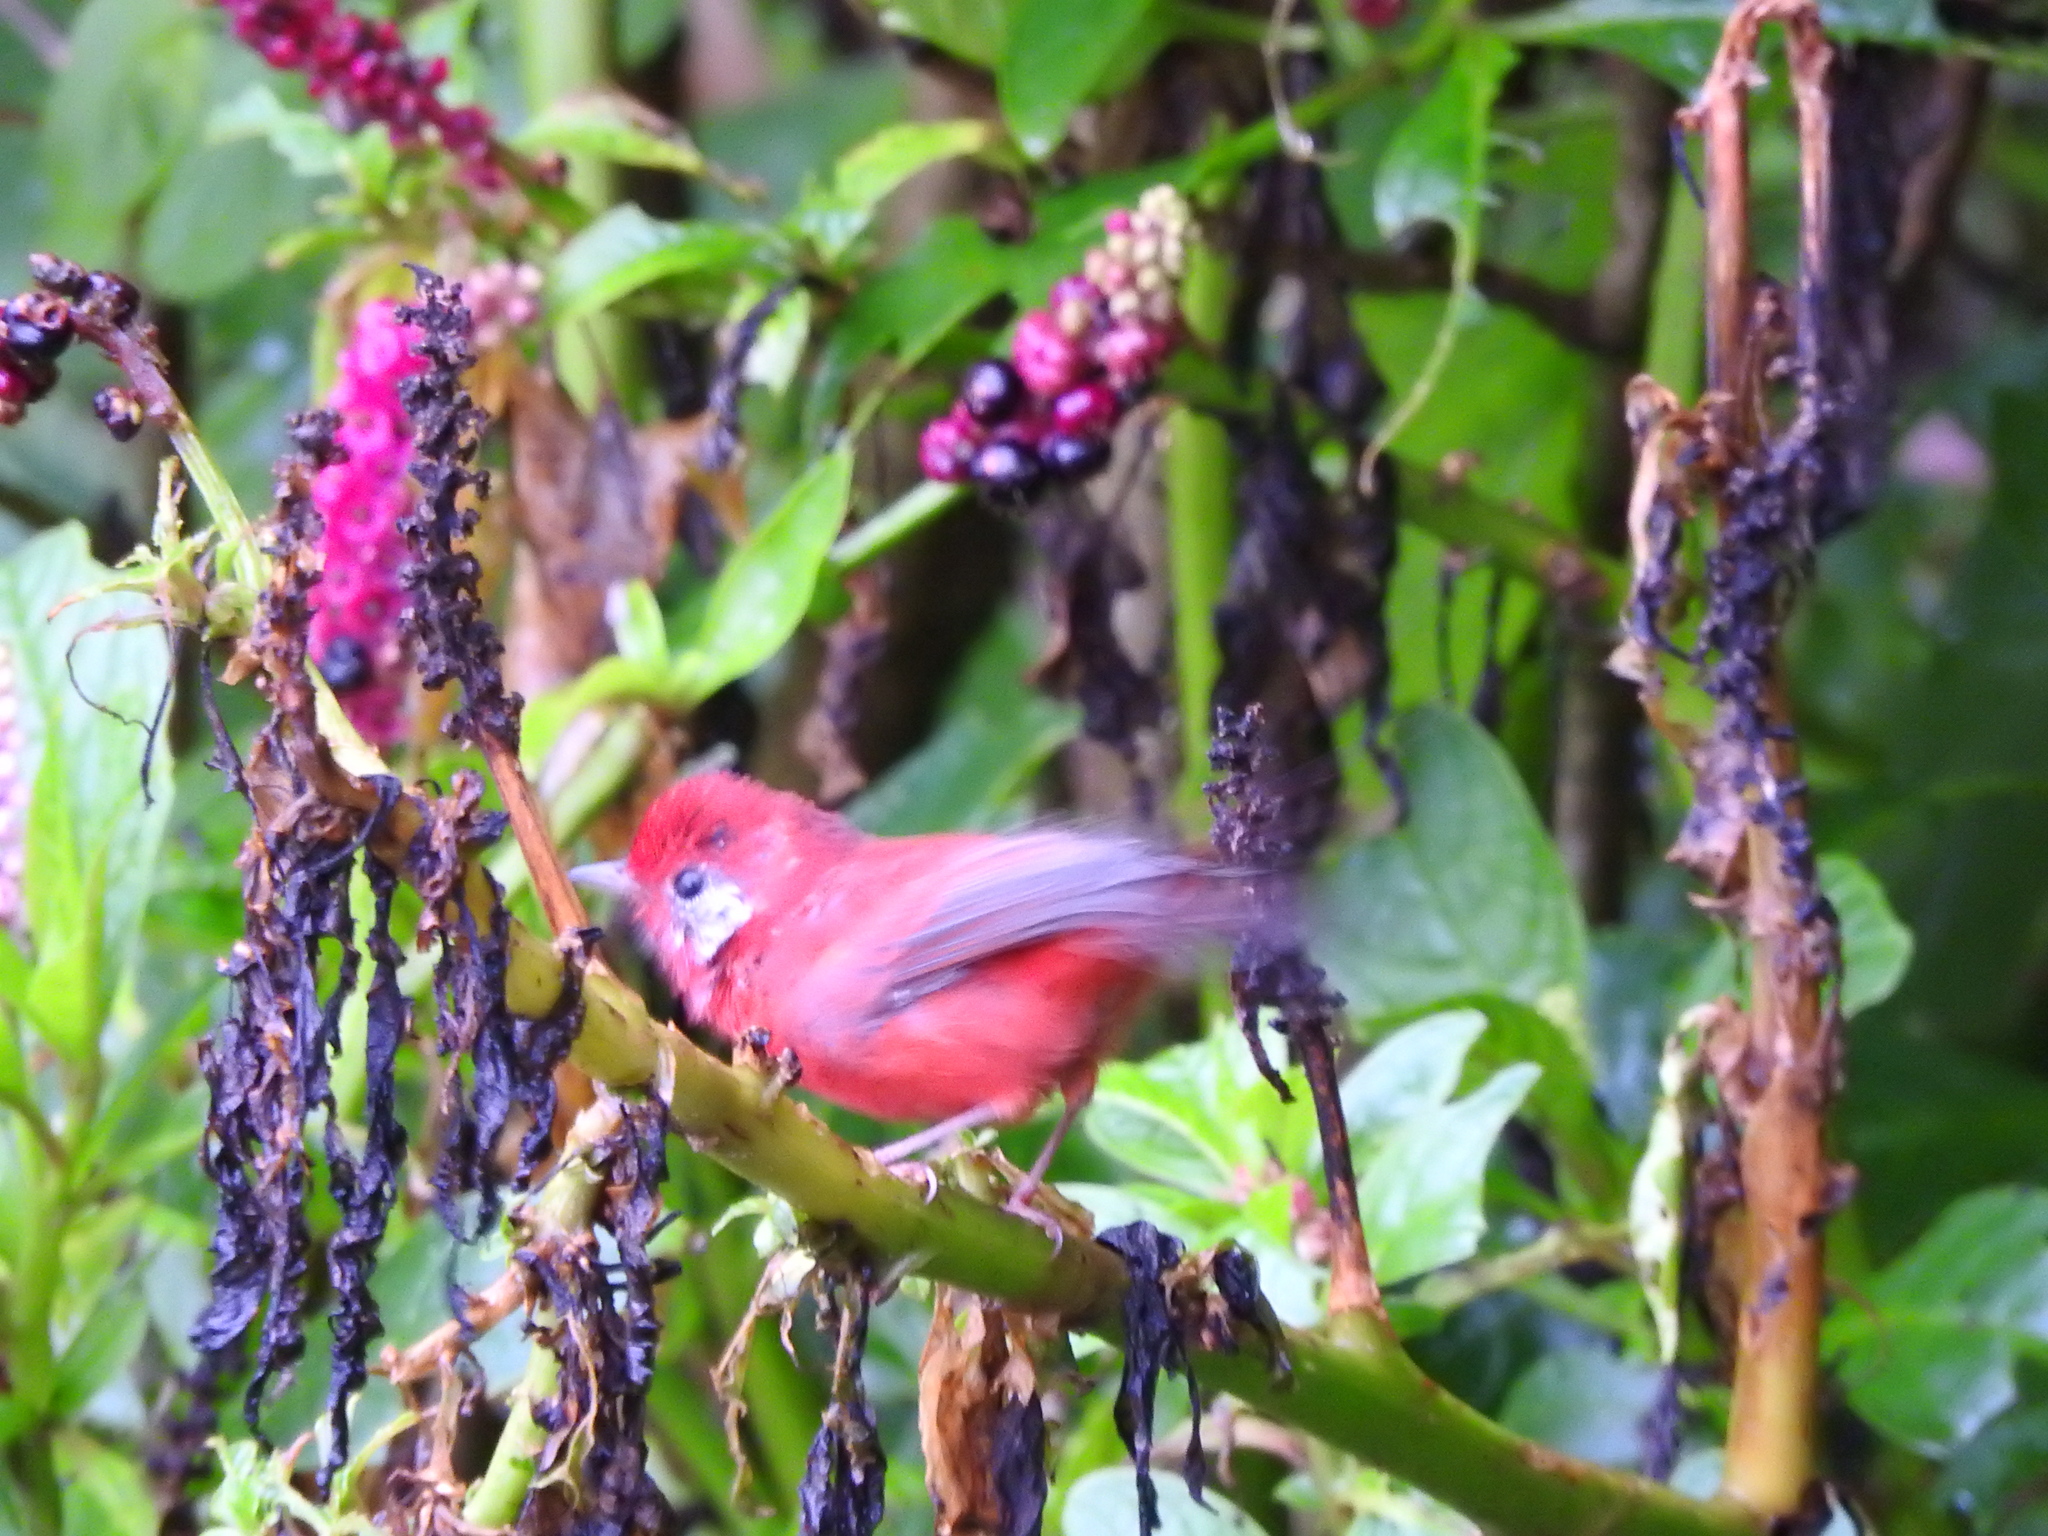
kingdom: Animalia
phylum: Chordata
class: Aves
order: Passeriformes
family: Parulidae
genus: Cardellina
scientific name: Cardellina rubra
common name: Red warbler
